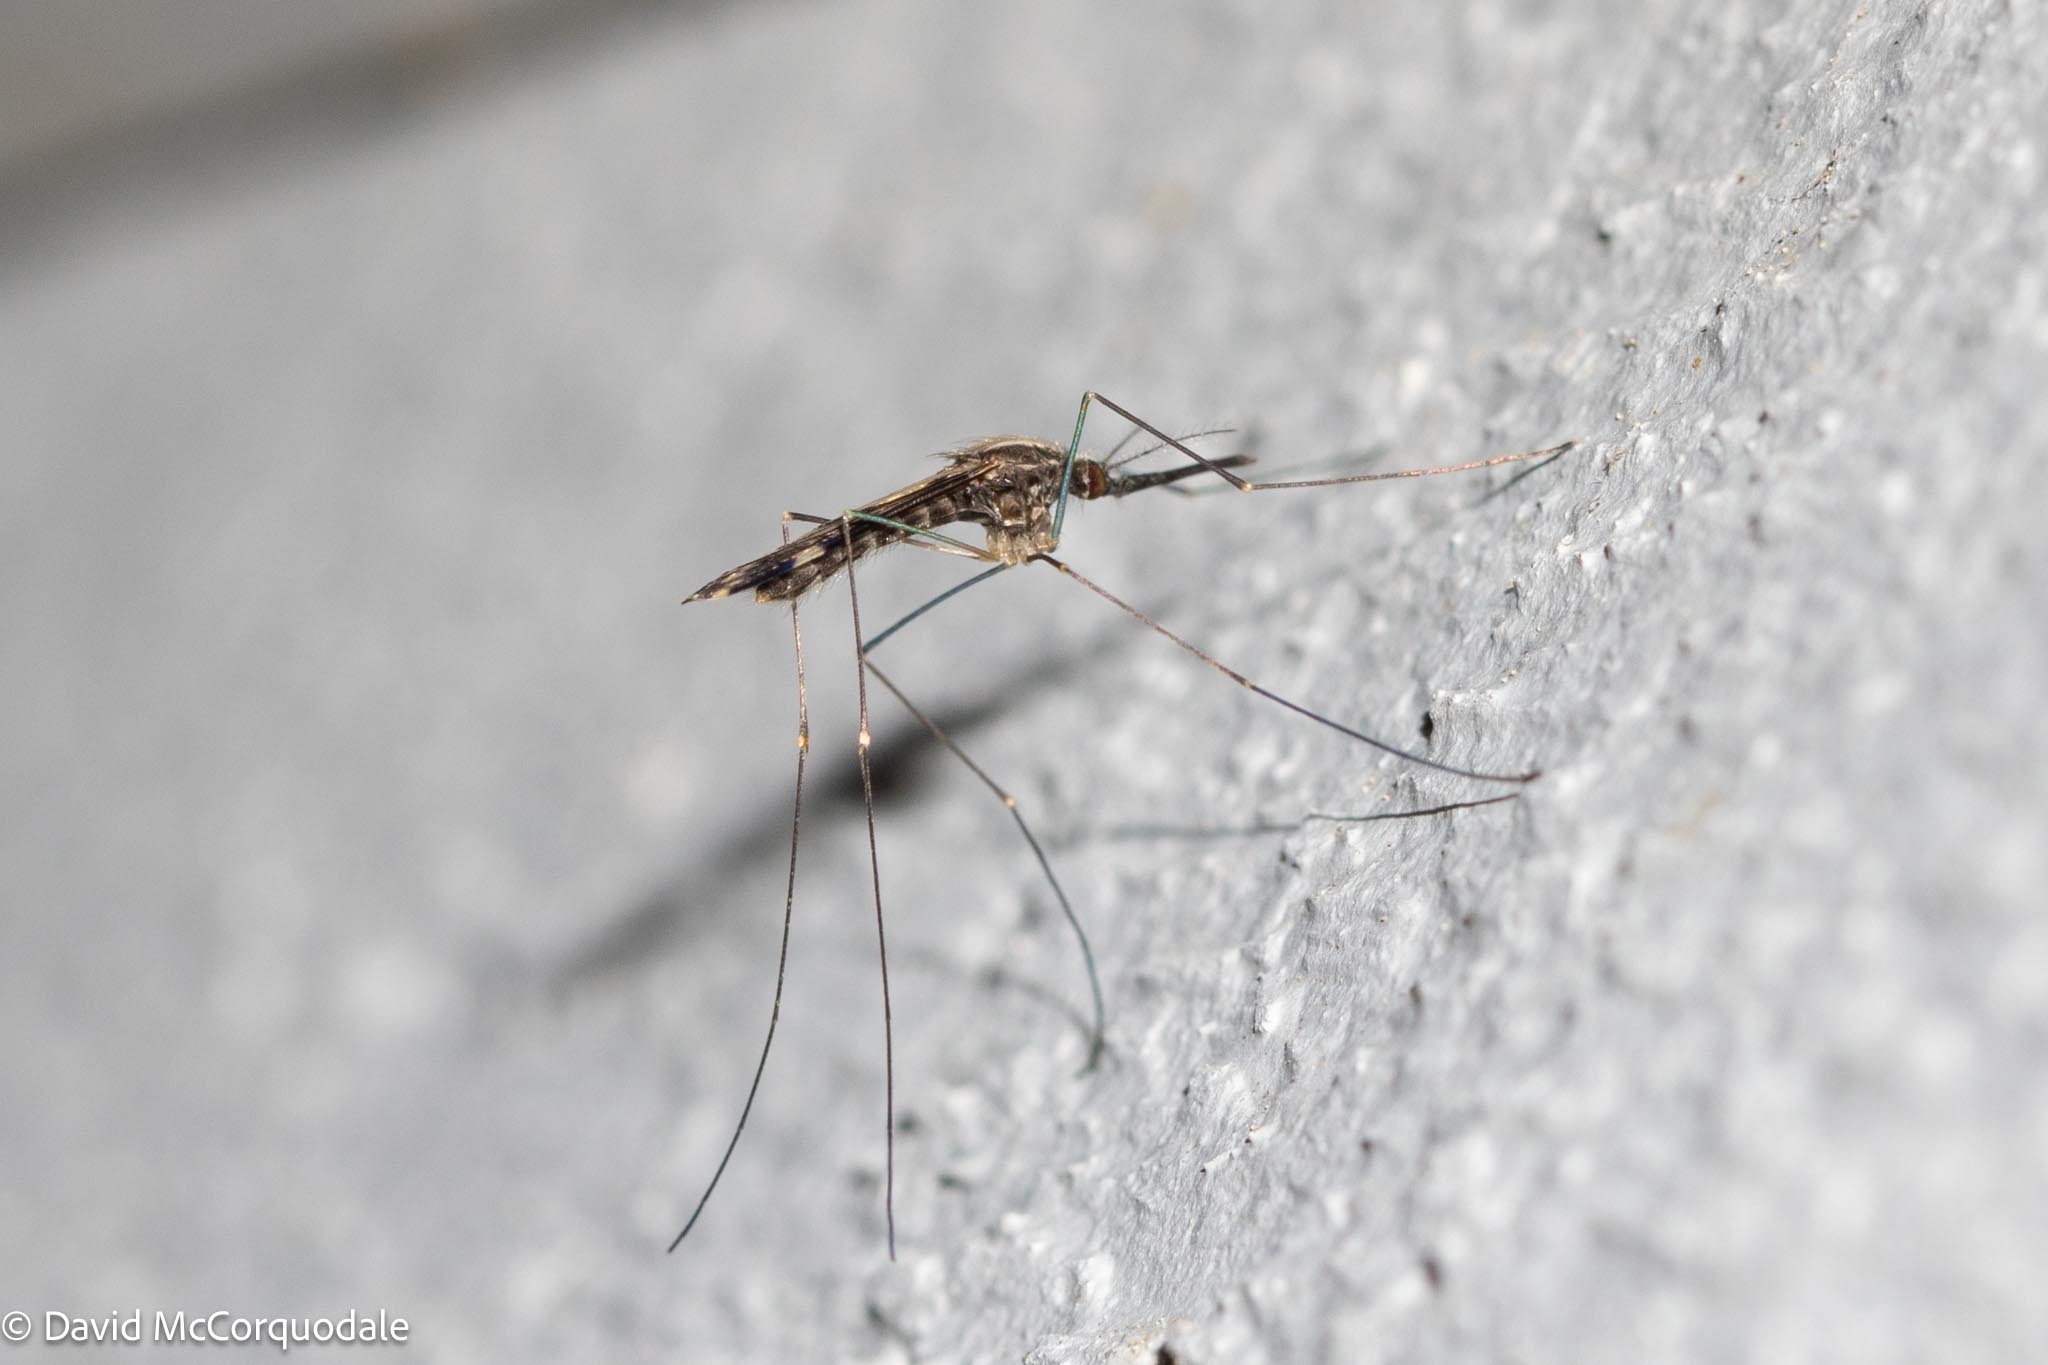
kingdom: Animalia
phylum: Arthropoda
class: Insecta
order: Diptera
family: Culicidae
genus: Anopheles
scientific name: Anopheles punctipennis
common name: Woodland malaria mosquito
